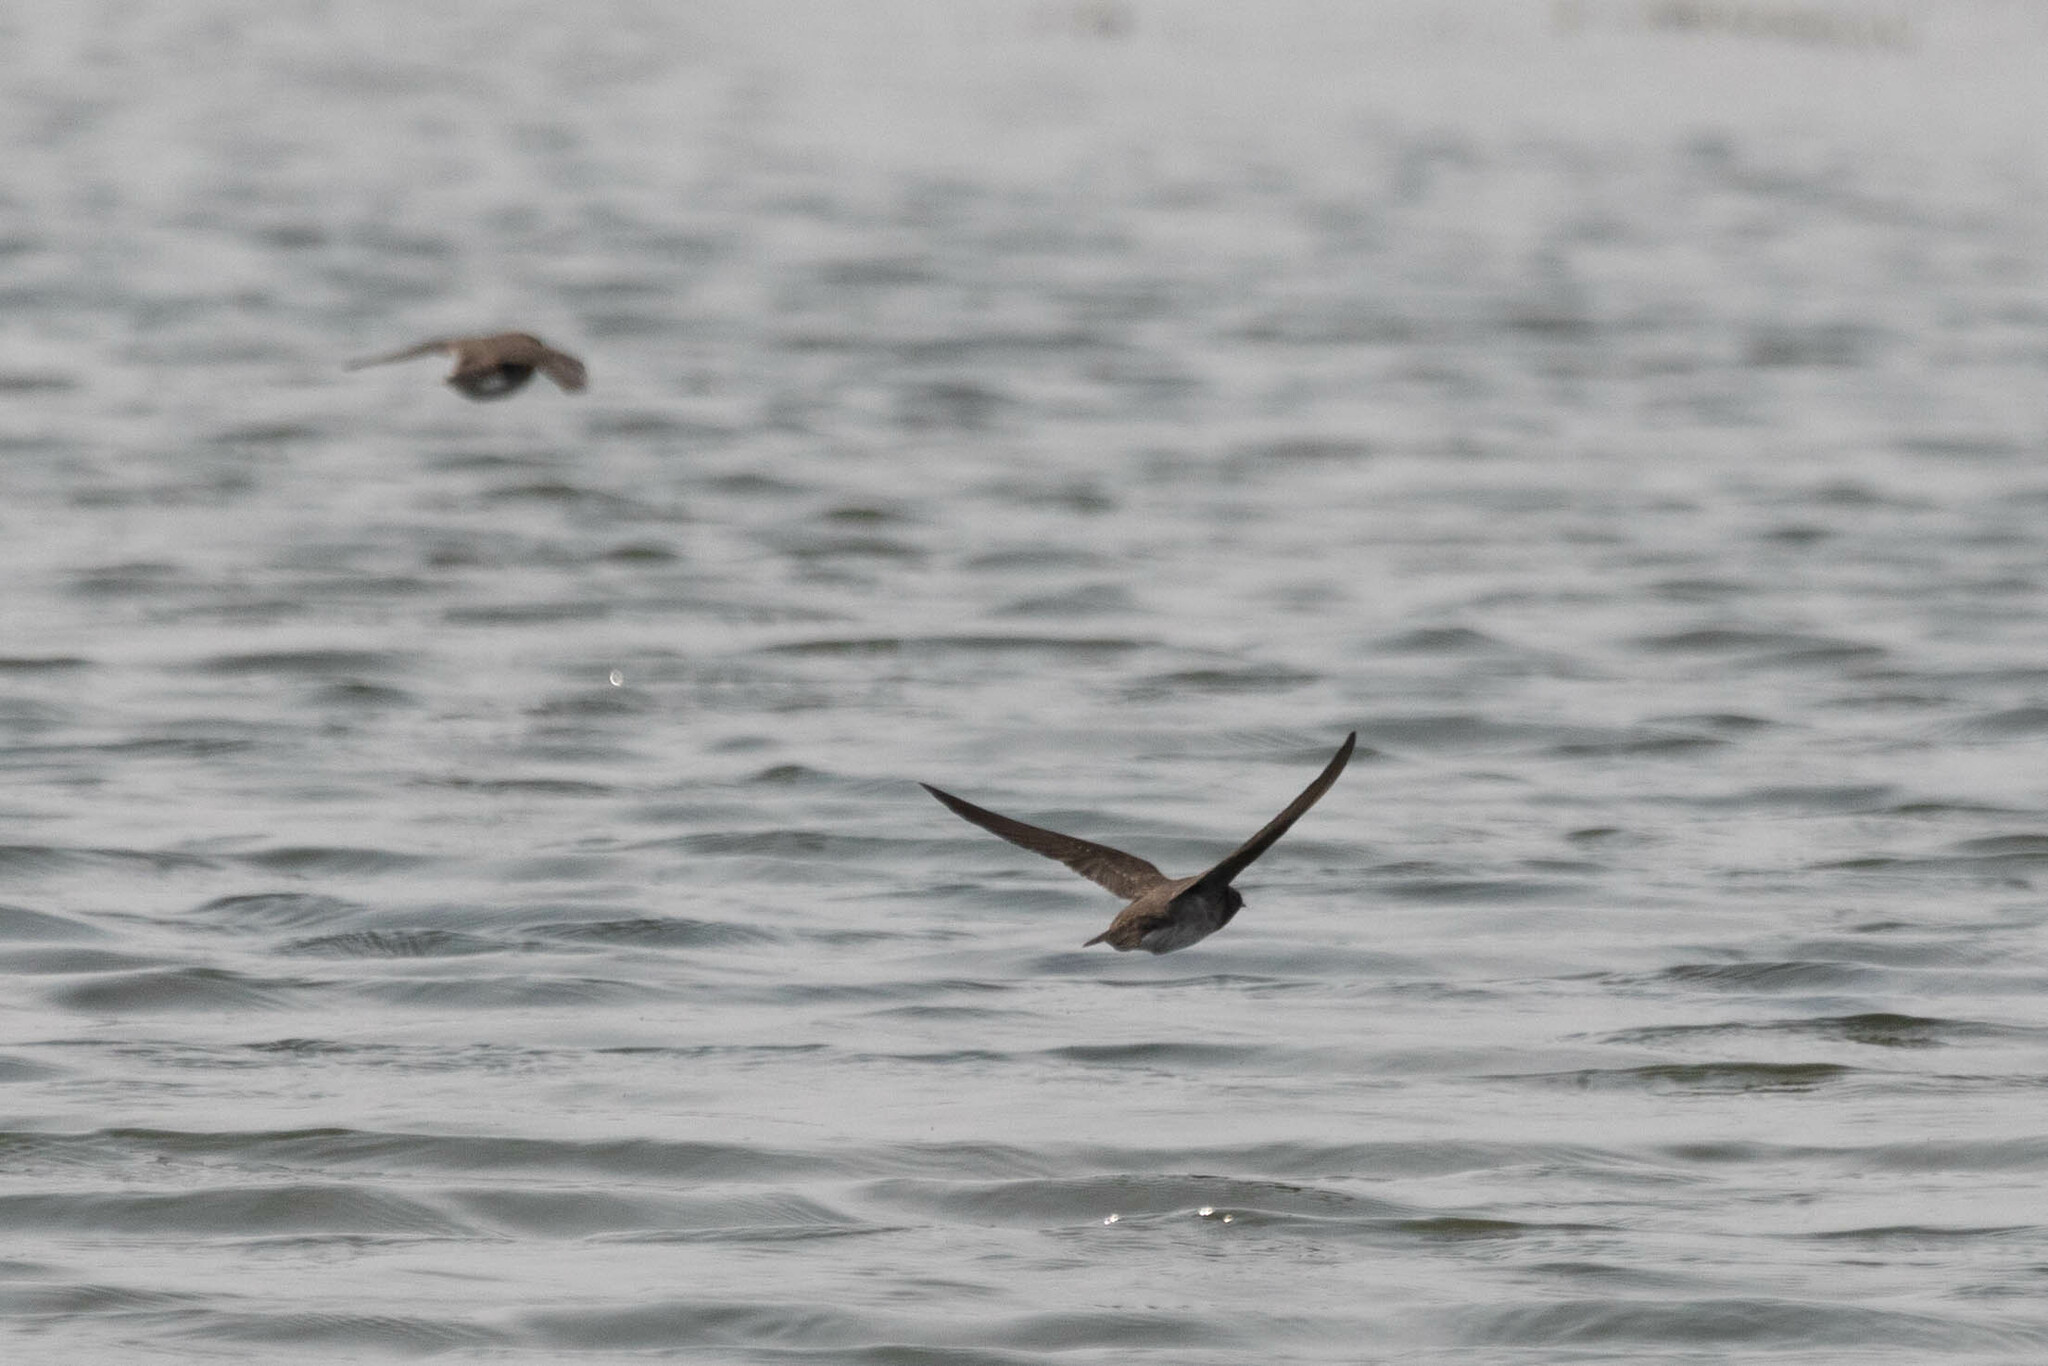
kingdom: Animalia
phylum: Chordata
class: Aves
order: Passeriformes
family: Hirundinidae
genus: Stelgidopteryx
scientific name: Stelgidopteryx serripennis
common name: Northern rough-winged swallow
